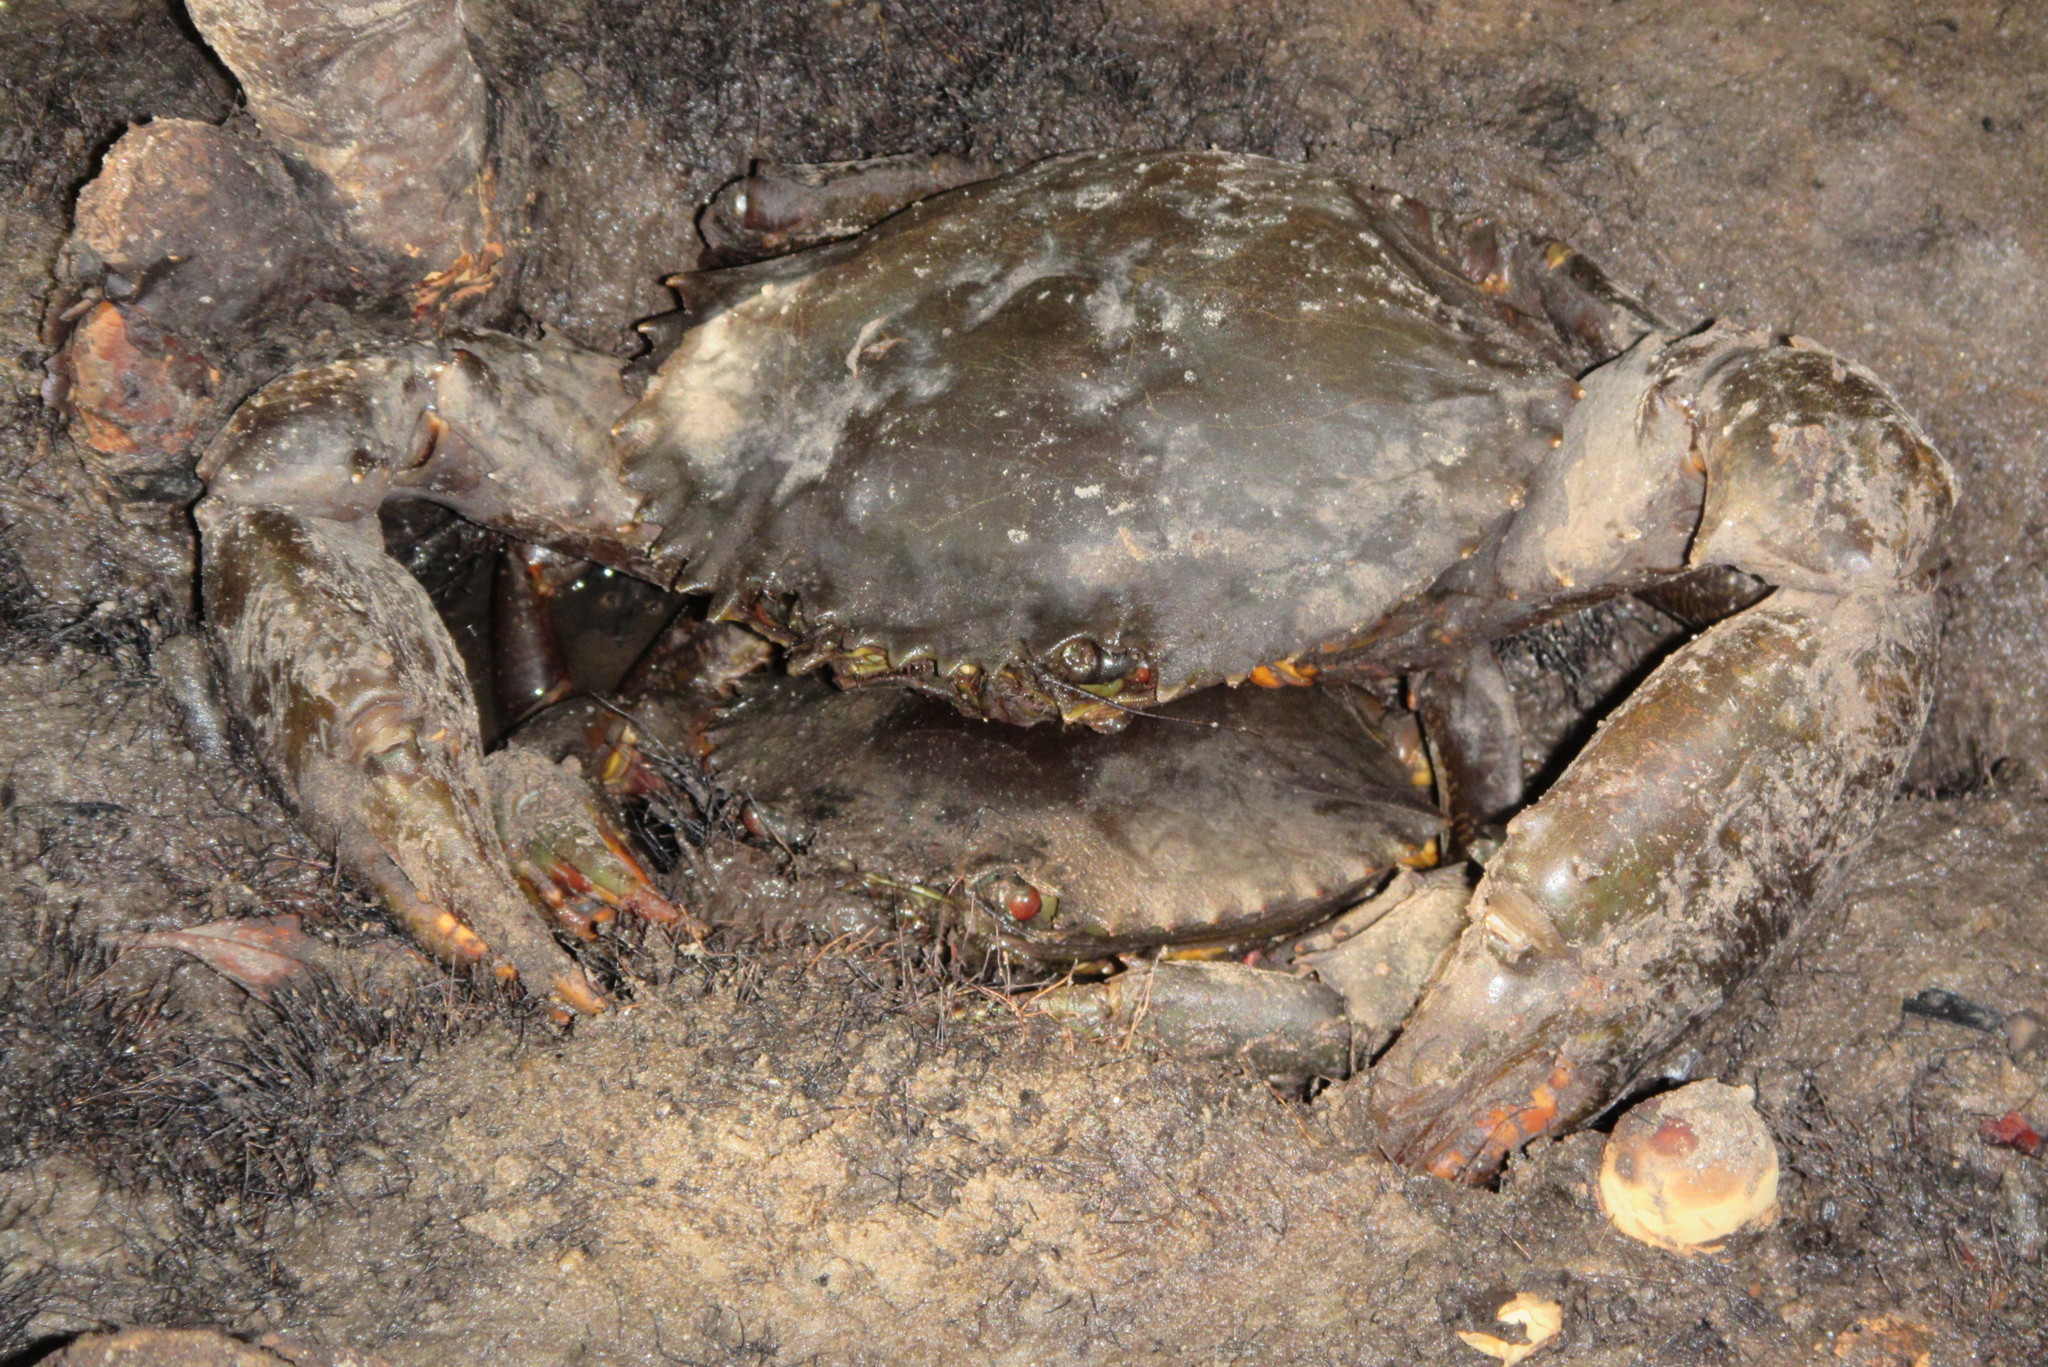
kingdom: Animalia
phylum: Arthropoda
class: Malacostraca
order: Decapoda
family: Portunidae
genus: Scylla
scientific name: Scylla serrata
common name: Giant mud crab
